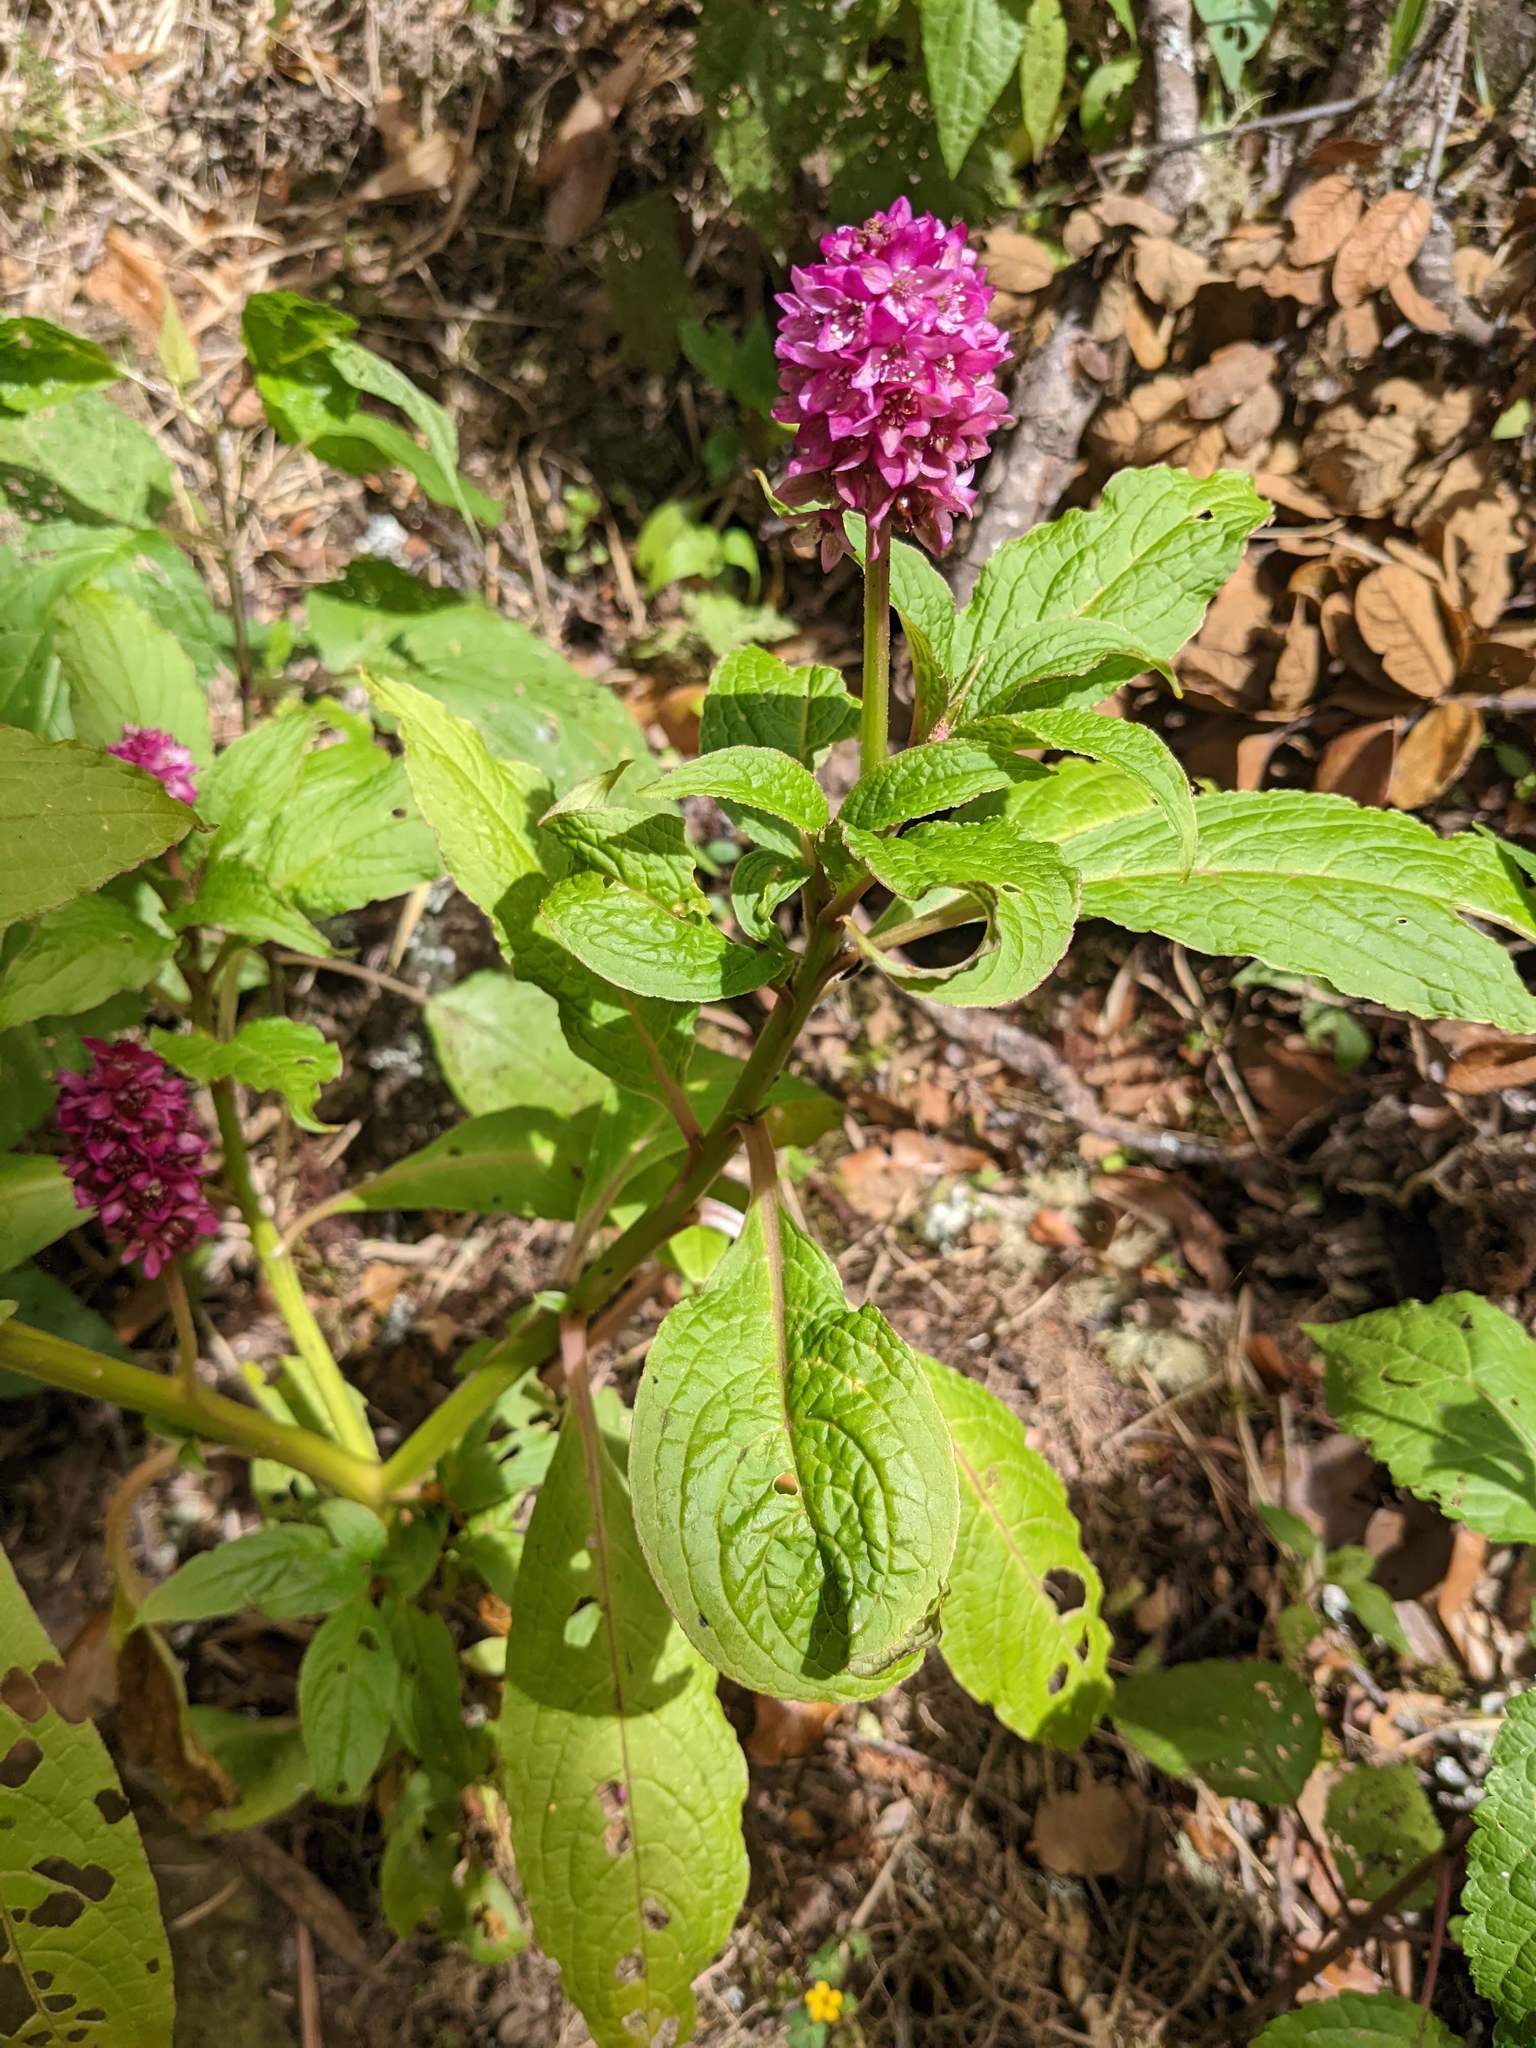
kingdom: Plantae
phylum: Tracheophyta
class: Magnoliopsida
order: Caryophyllales
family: Phytolaccaceae
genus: Phytolacca
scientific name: Phytolacca rugosa
